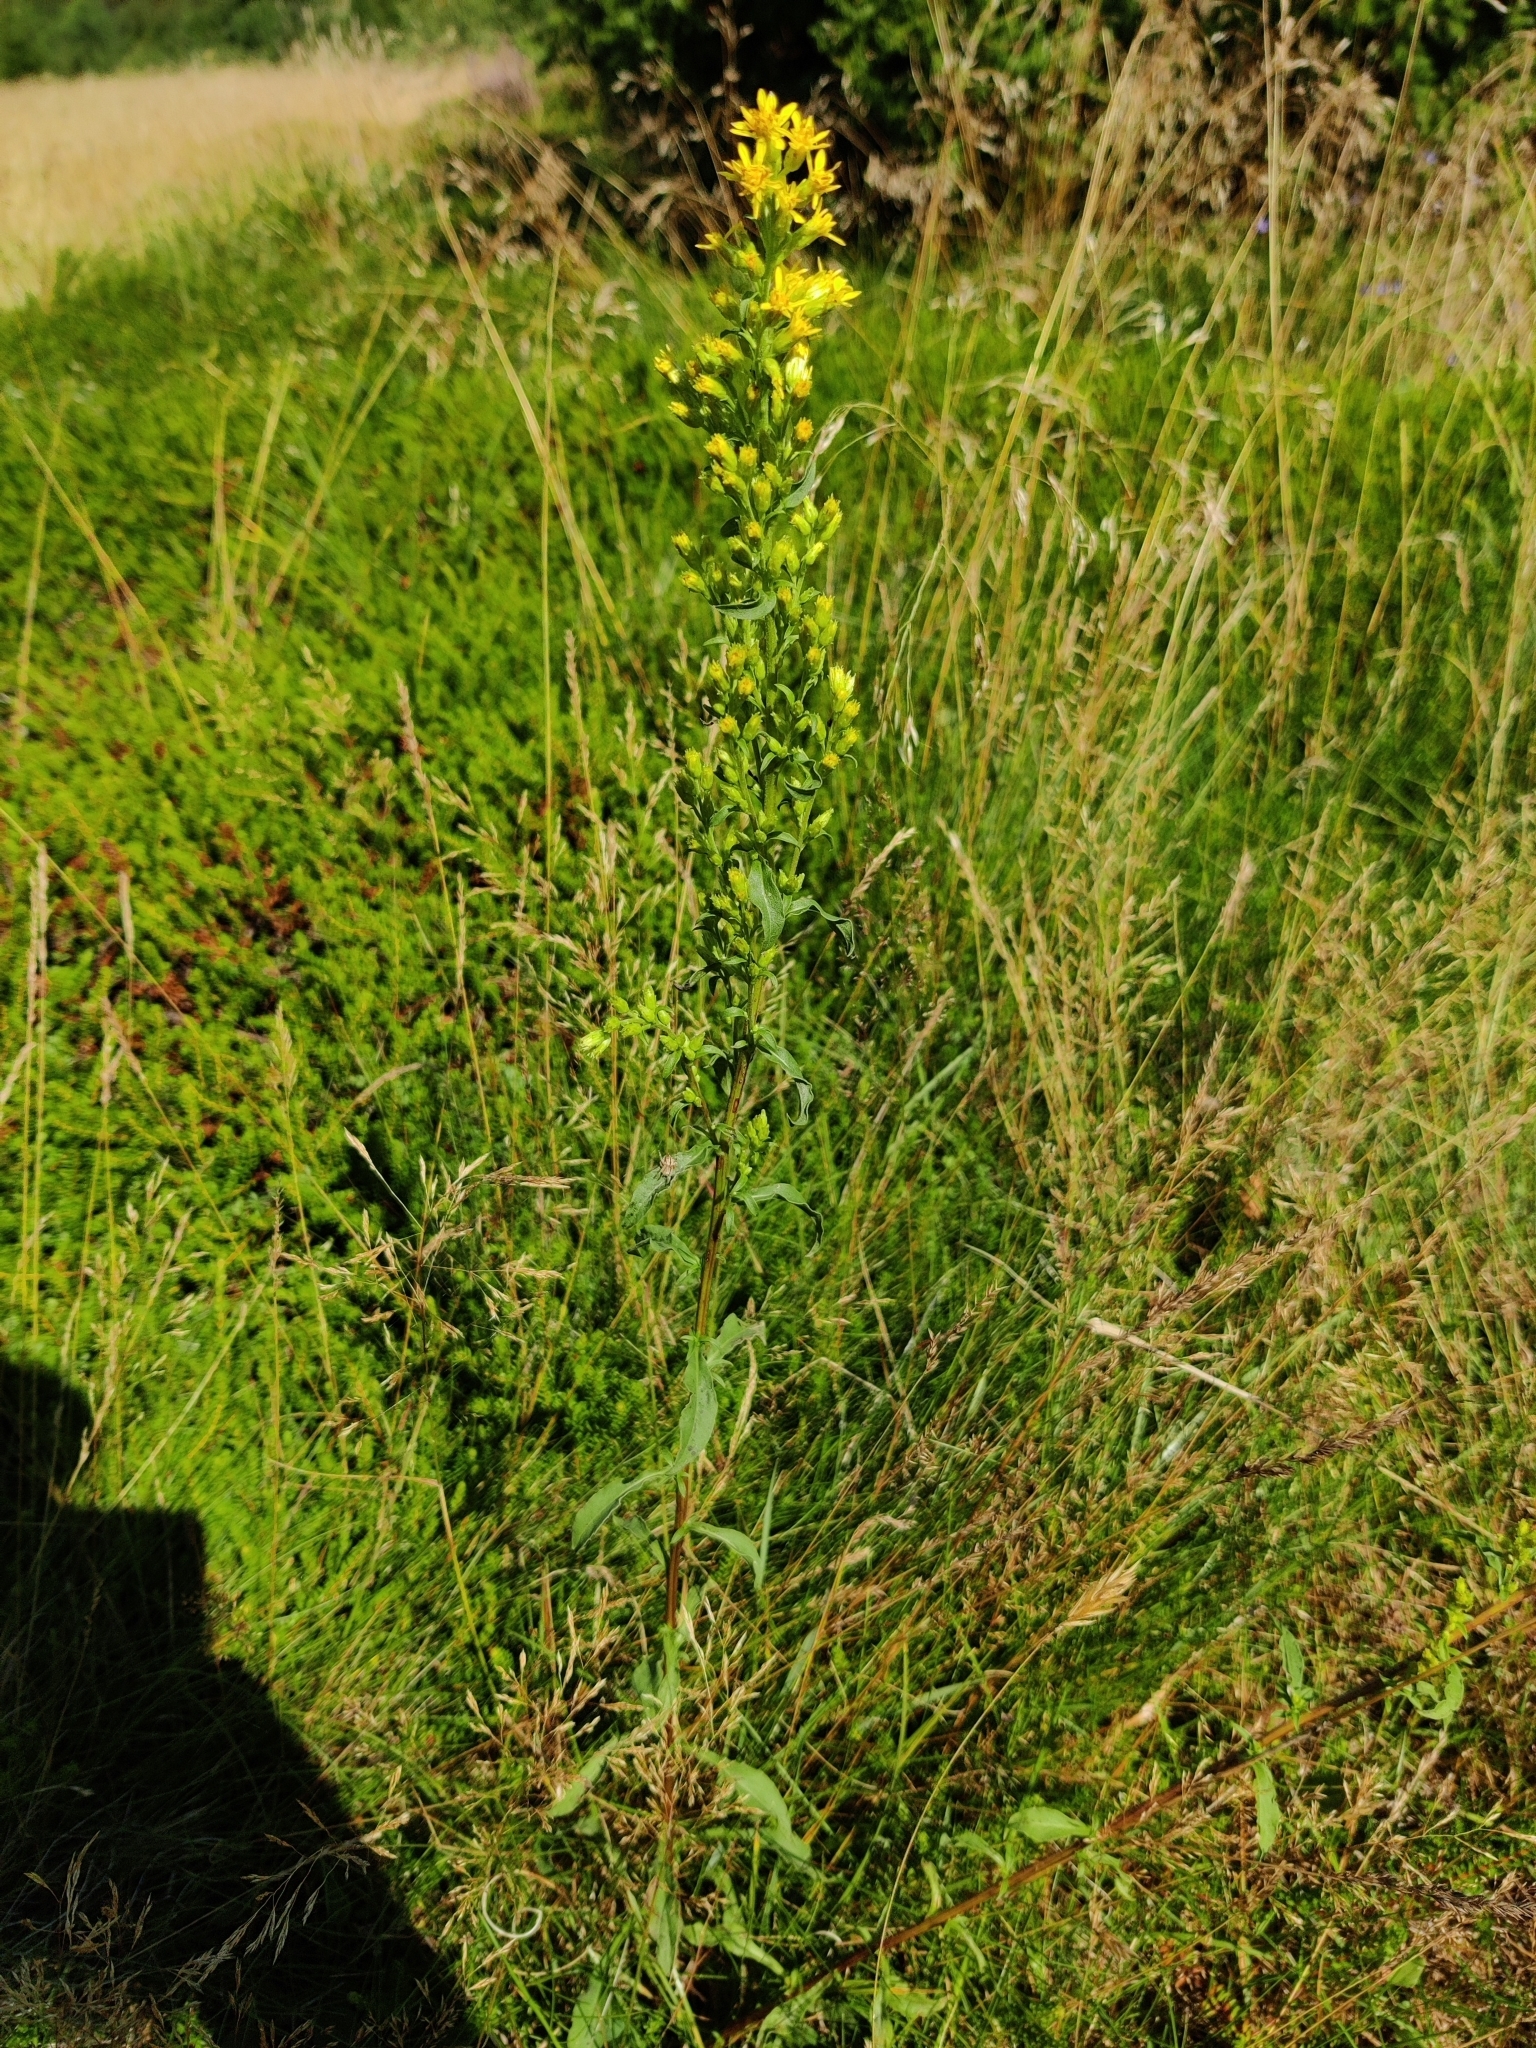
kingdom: Plantae
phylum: Tracheophyta
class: Magnoliopsida
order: Asterales
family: Asteraceae
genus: Solidago
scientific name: Solidago virgaurea
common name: Goldenrod
